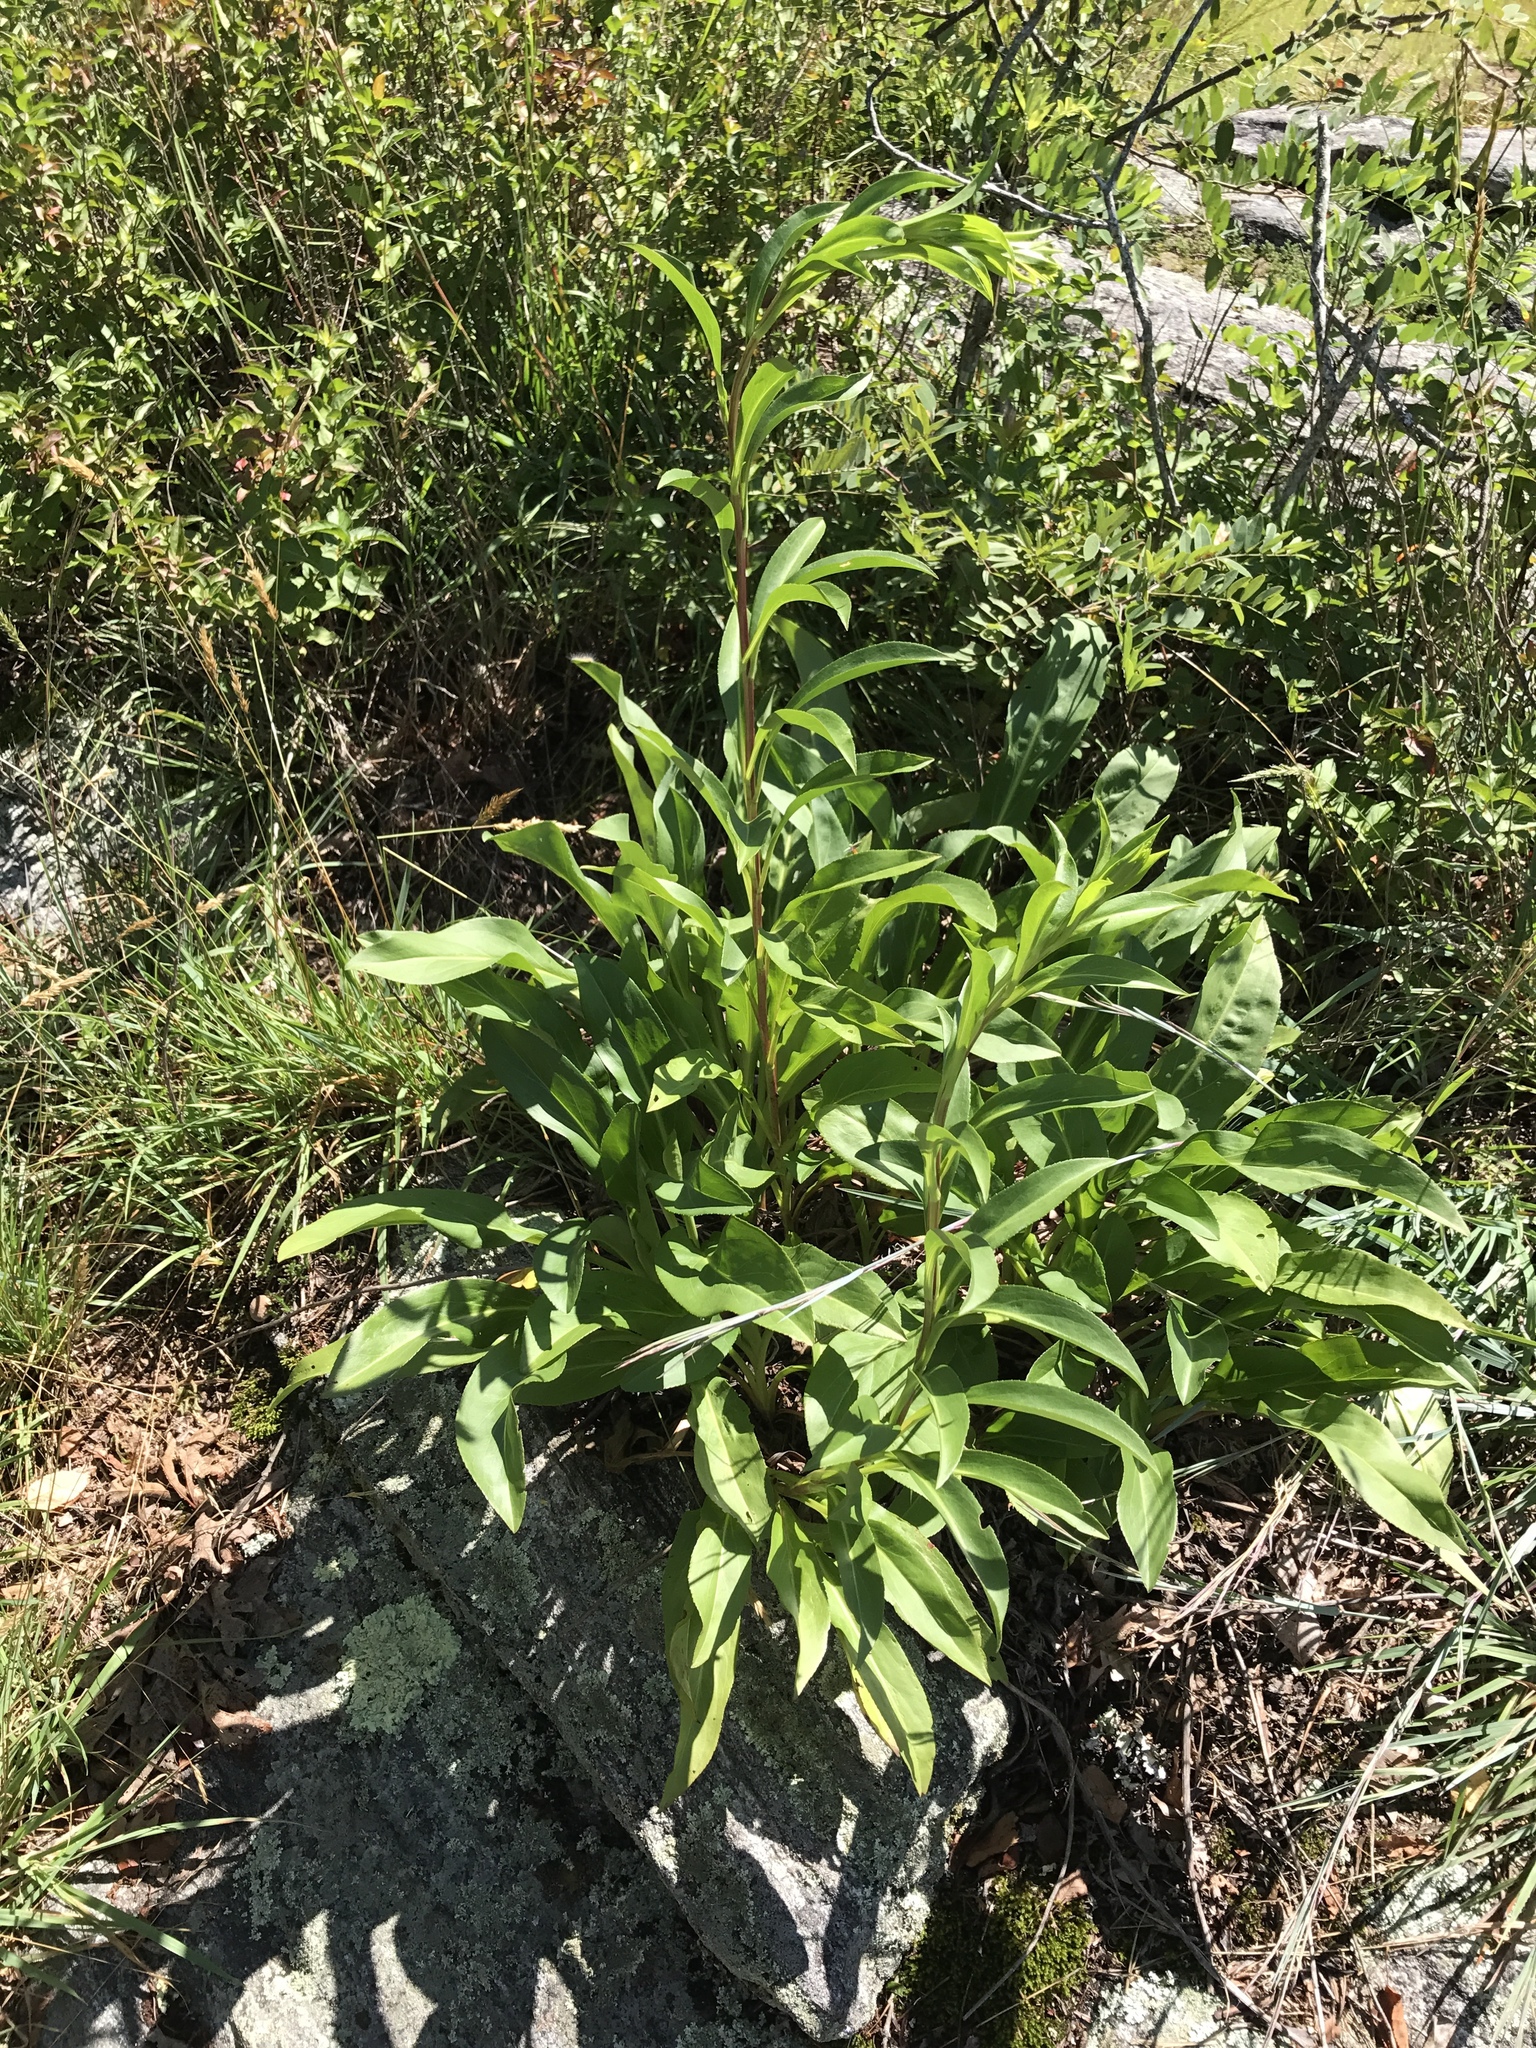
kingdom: Plantae
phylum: Tracheophyta
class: Magnoliopsida
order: Asterales
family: Asteraceae
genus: Solidago
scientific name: Solidago simulans
